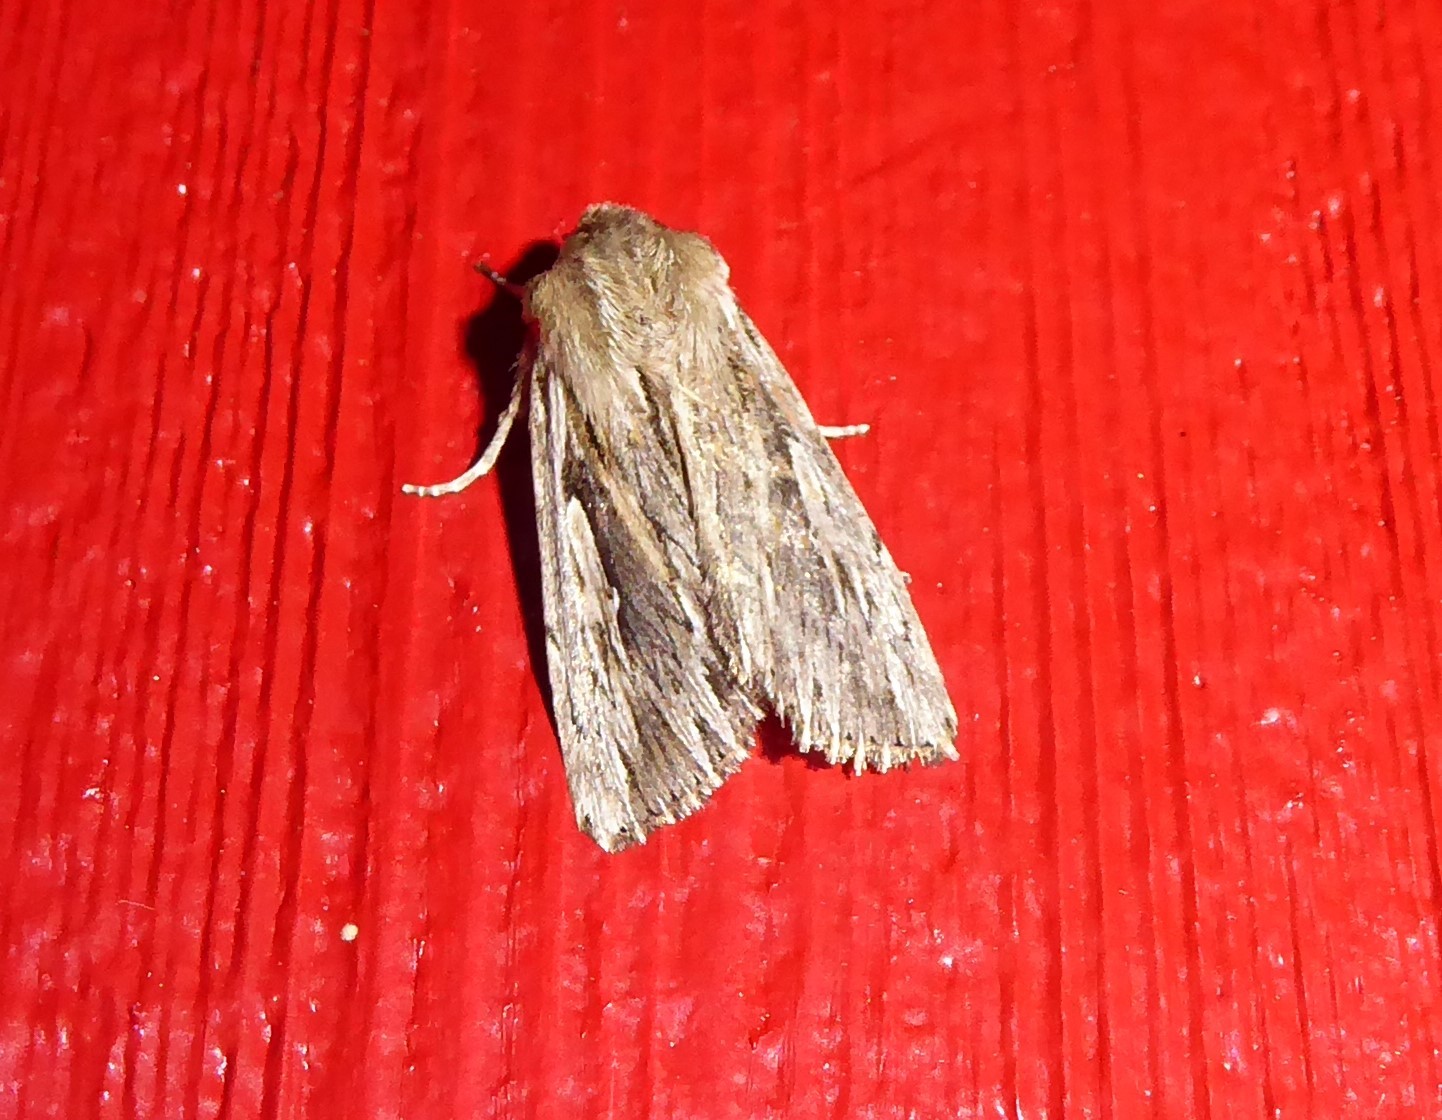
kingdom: Animalia
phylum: Arthropoda
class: Insecta
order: Lepidoptera
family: Noctuidae
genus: Persectania
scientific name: Persectania aversa
